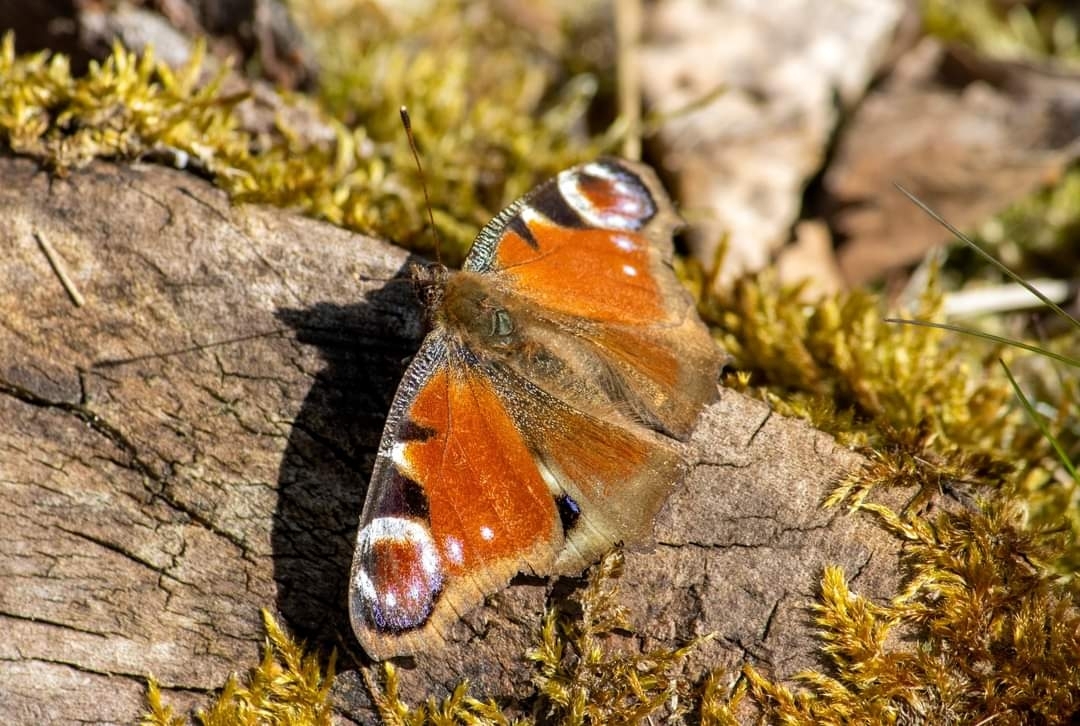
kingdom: Animalia
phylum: Arthropoda
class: Insecta
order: Lepidoptera
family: Nymphalidae
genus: Aglais
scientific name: Aglais io
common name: Peacock
